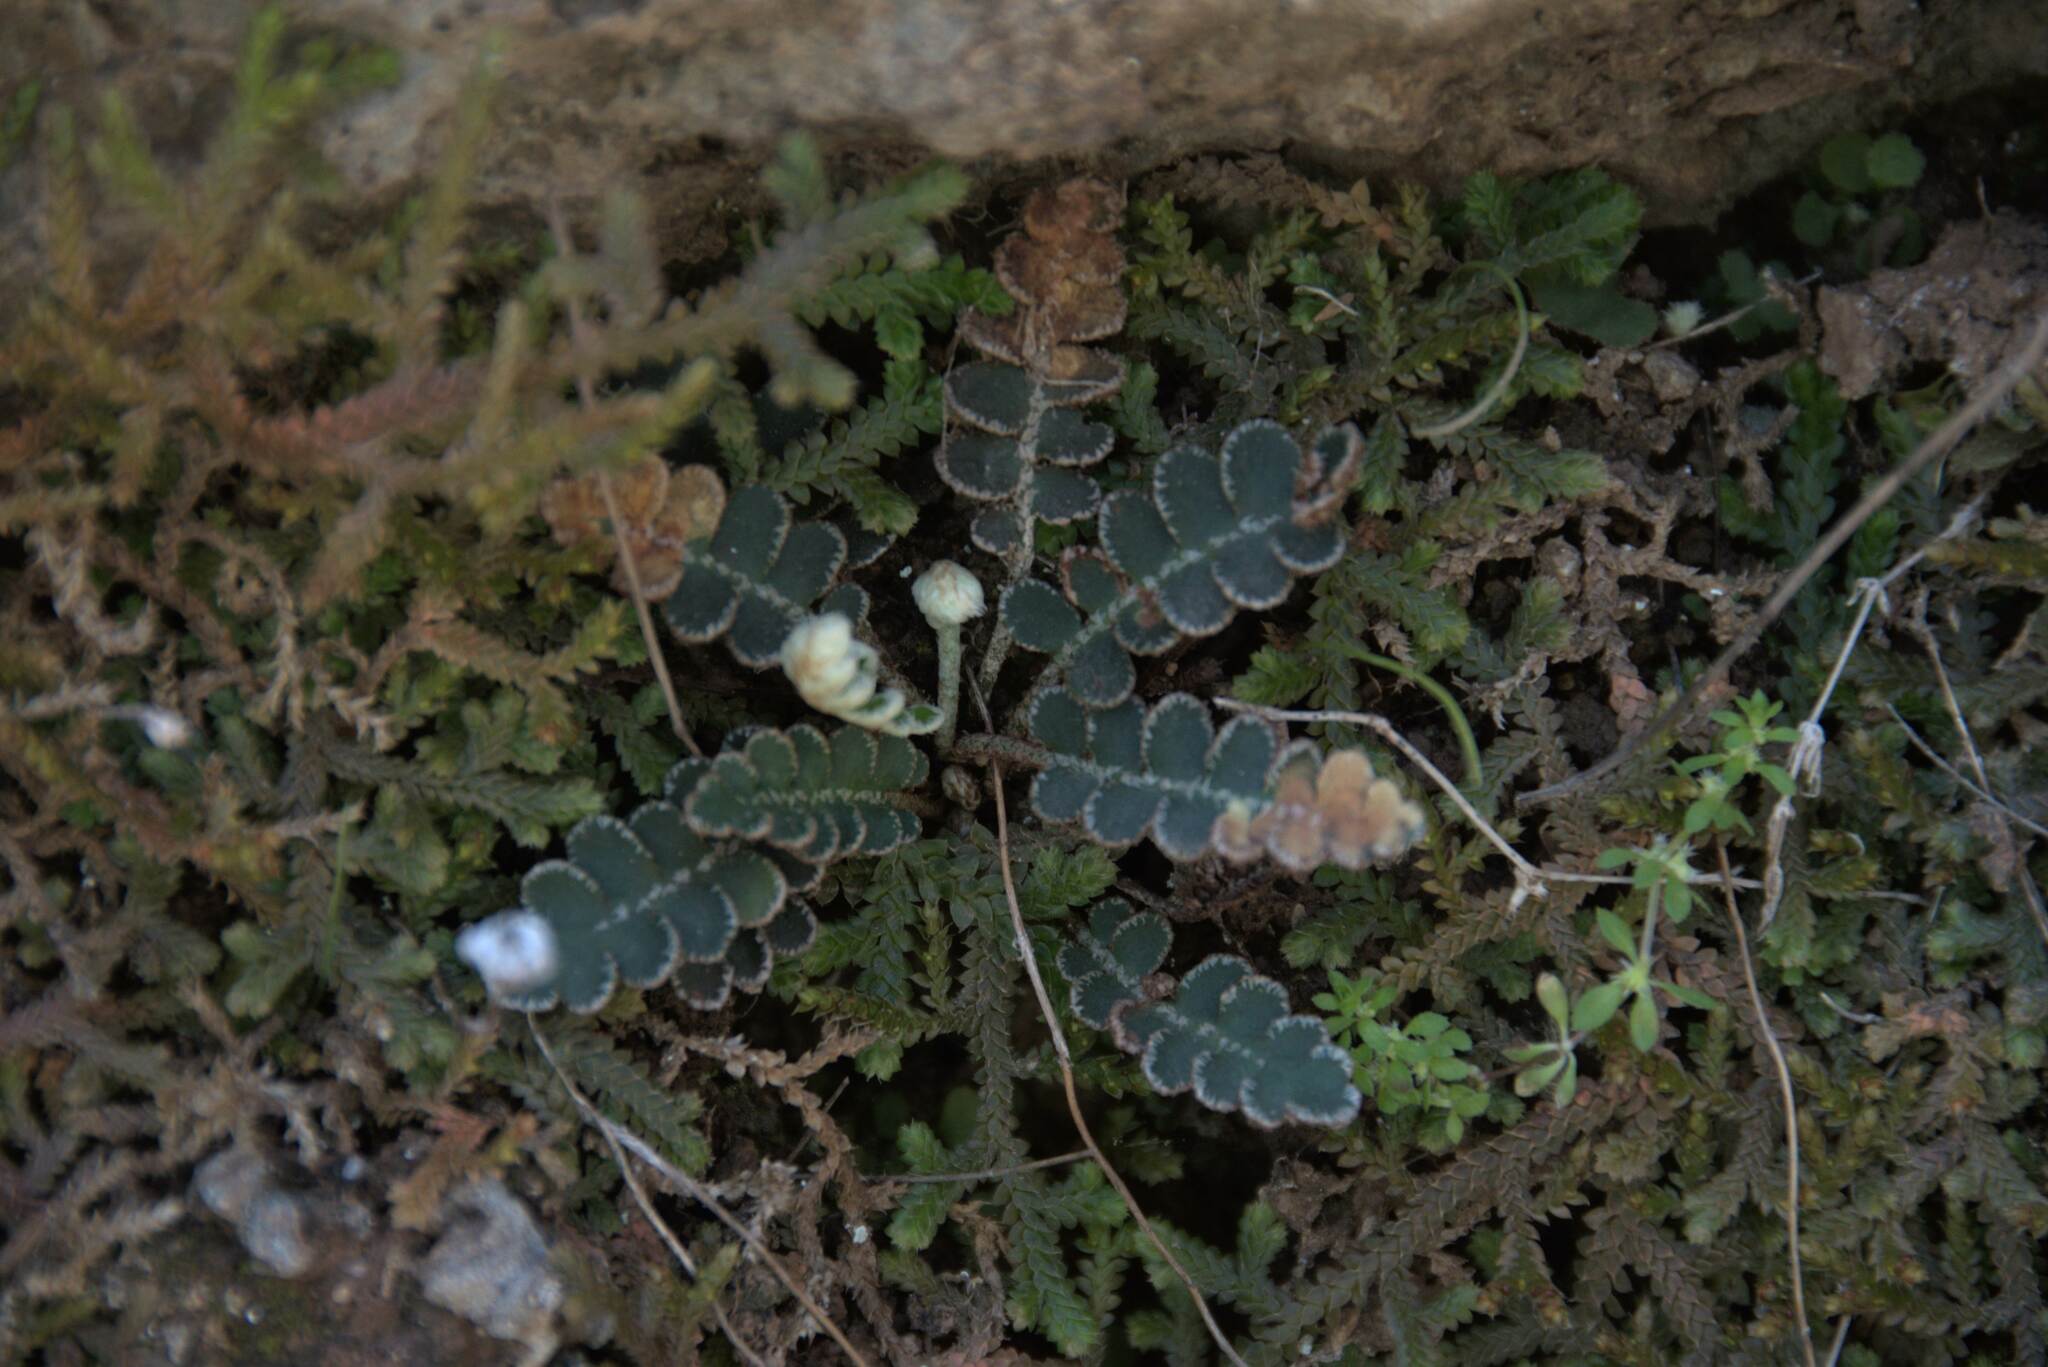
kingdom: Plantae
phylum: Tracheophyta
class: Polypodiopsida
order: Polypodiales
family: Aspleniaceae
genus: Asplenium
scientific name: Asplenium ceterach
